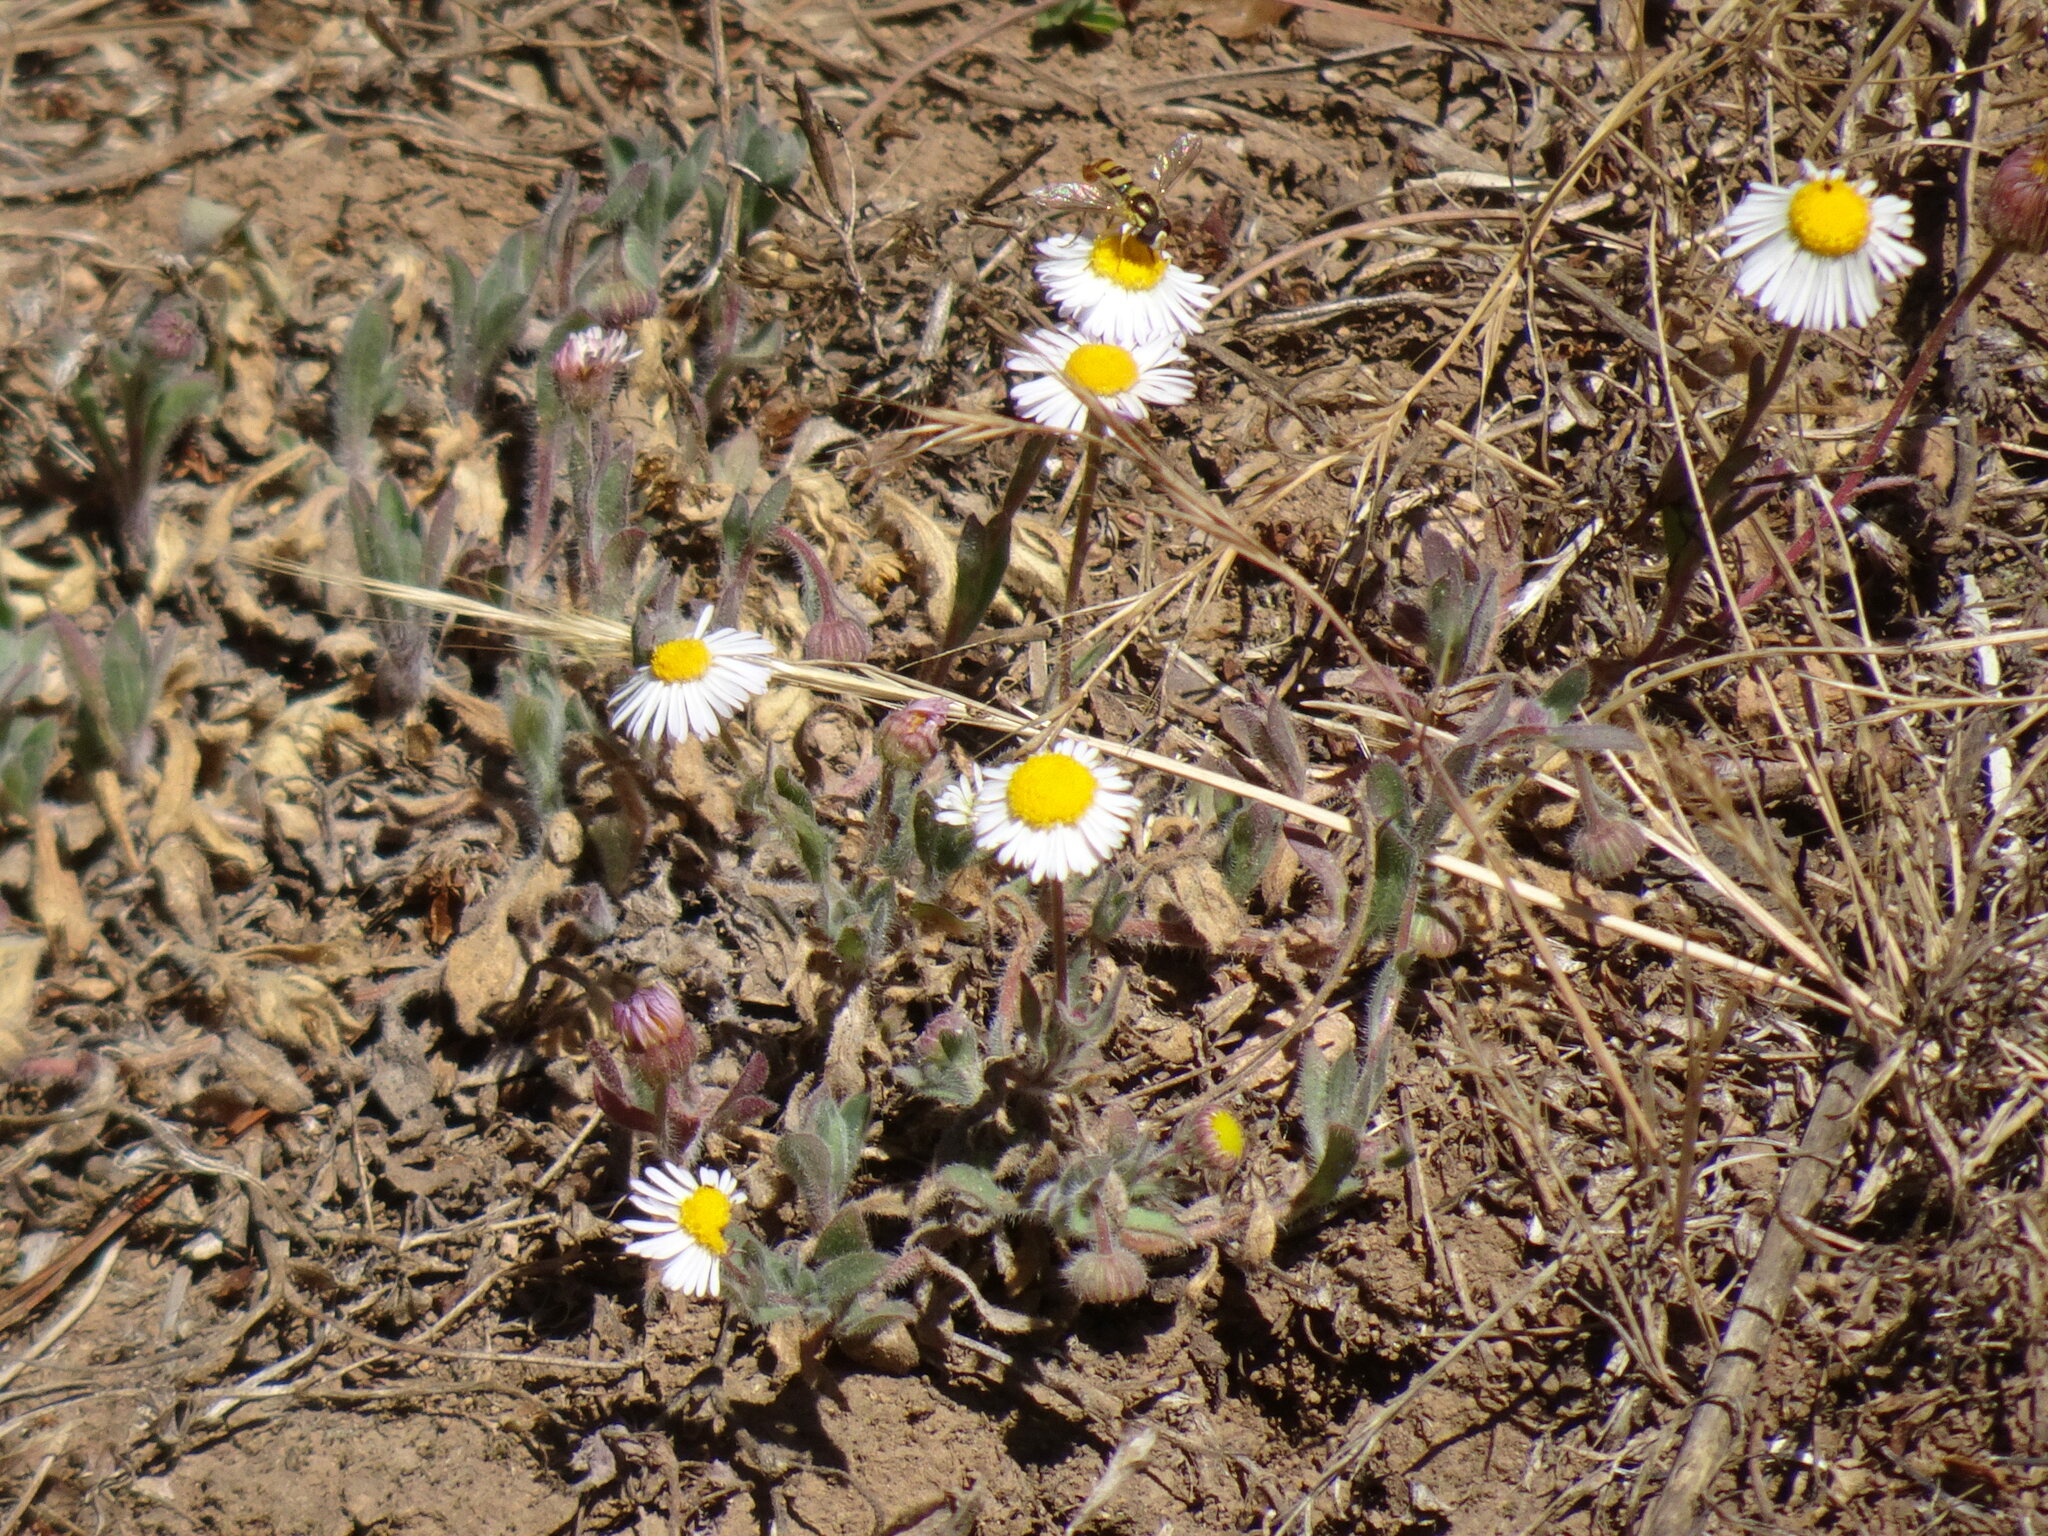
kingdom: Plantae
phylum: Tracheophyta
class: Magnoliopsida
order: Asterales
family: Asteraceae
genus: Aphanostephus
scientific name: Aphanostephus ramosissimus
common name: Plains lazy daisy
